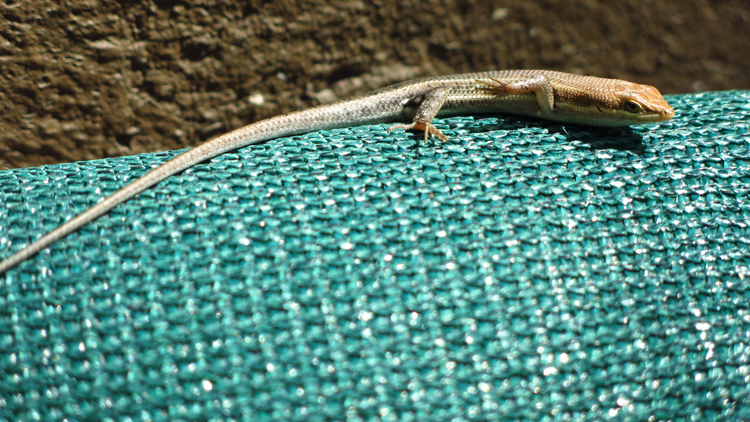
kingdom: Animalia
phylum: Chordata
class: Squamata
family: Scincidae
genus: Trachylepis
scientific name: Trachylepis varia
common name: Eastern variable skink
